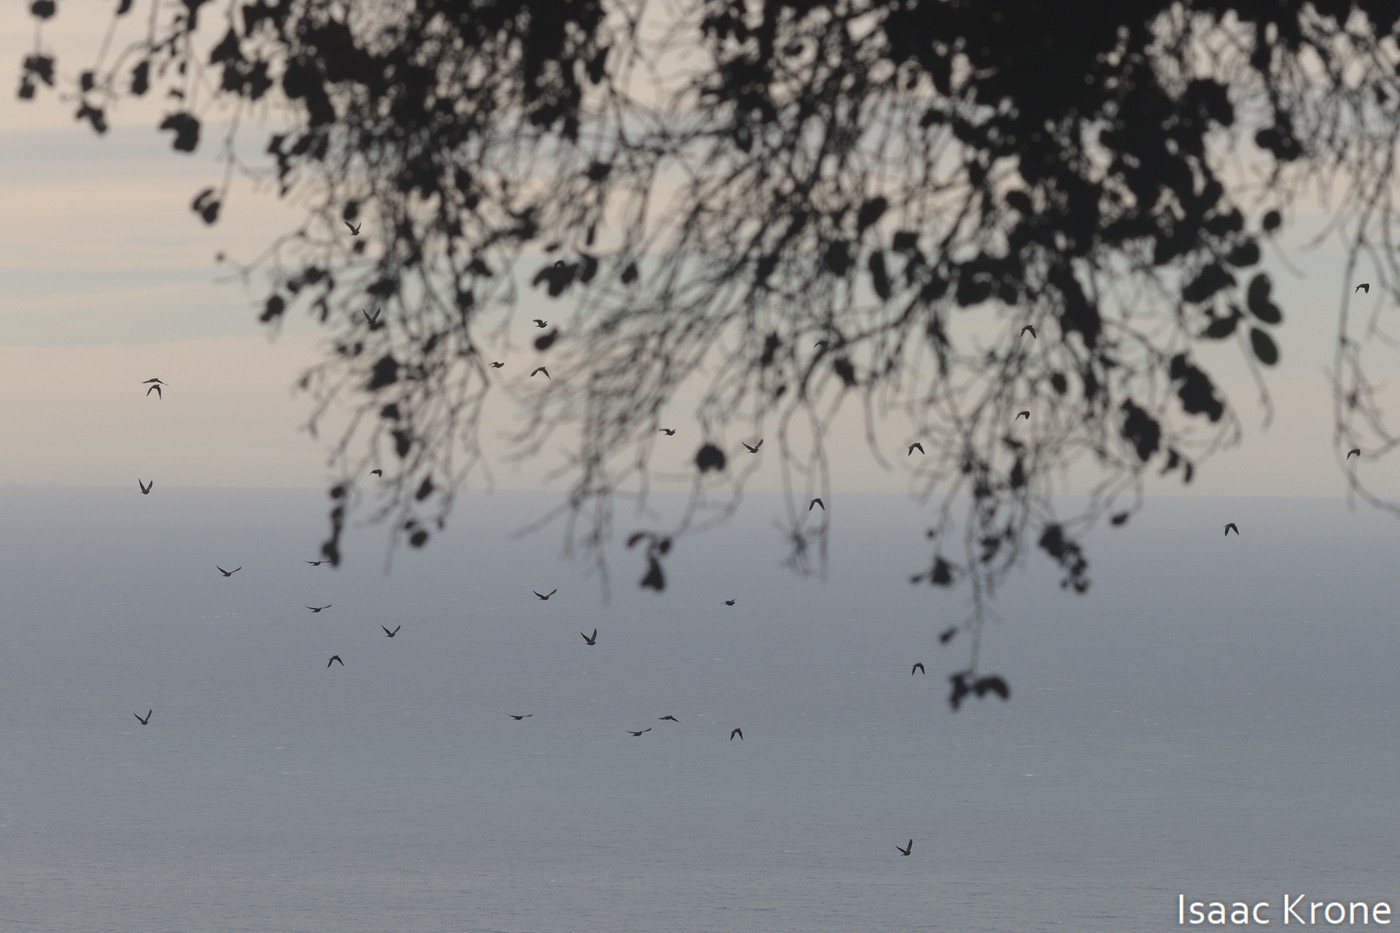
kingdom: Animalia
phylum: Chordata
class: Aves
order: Columbiformes
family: Columbidae
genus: Patagioenas
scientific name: Patagioenas fasciata
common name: Band-tailed pigeon
